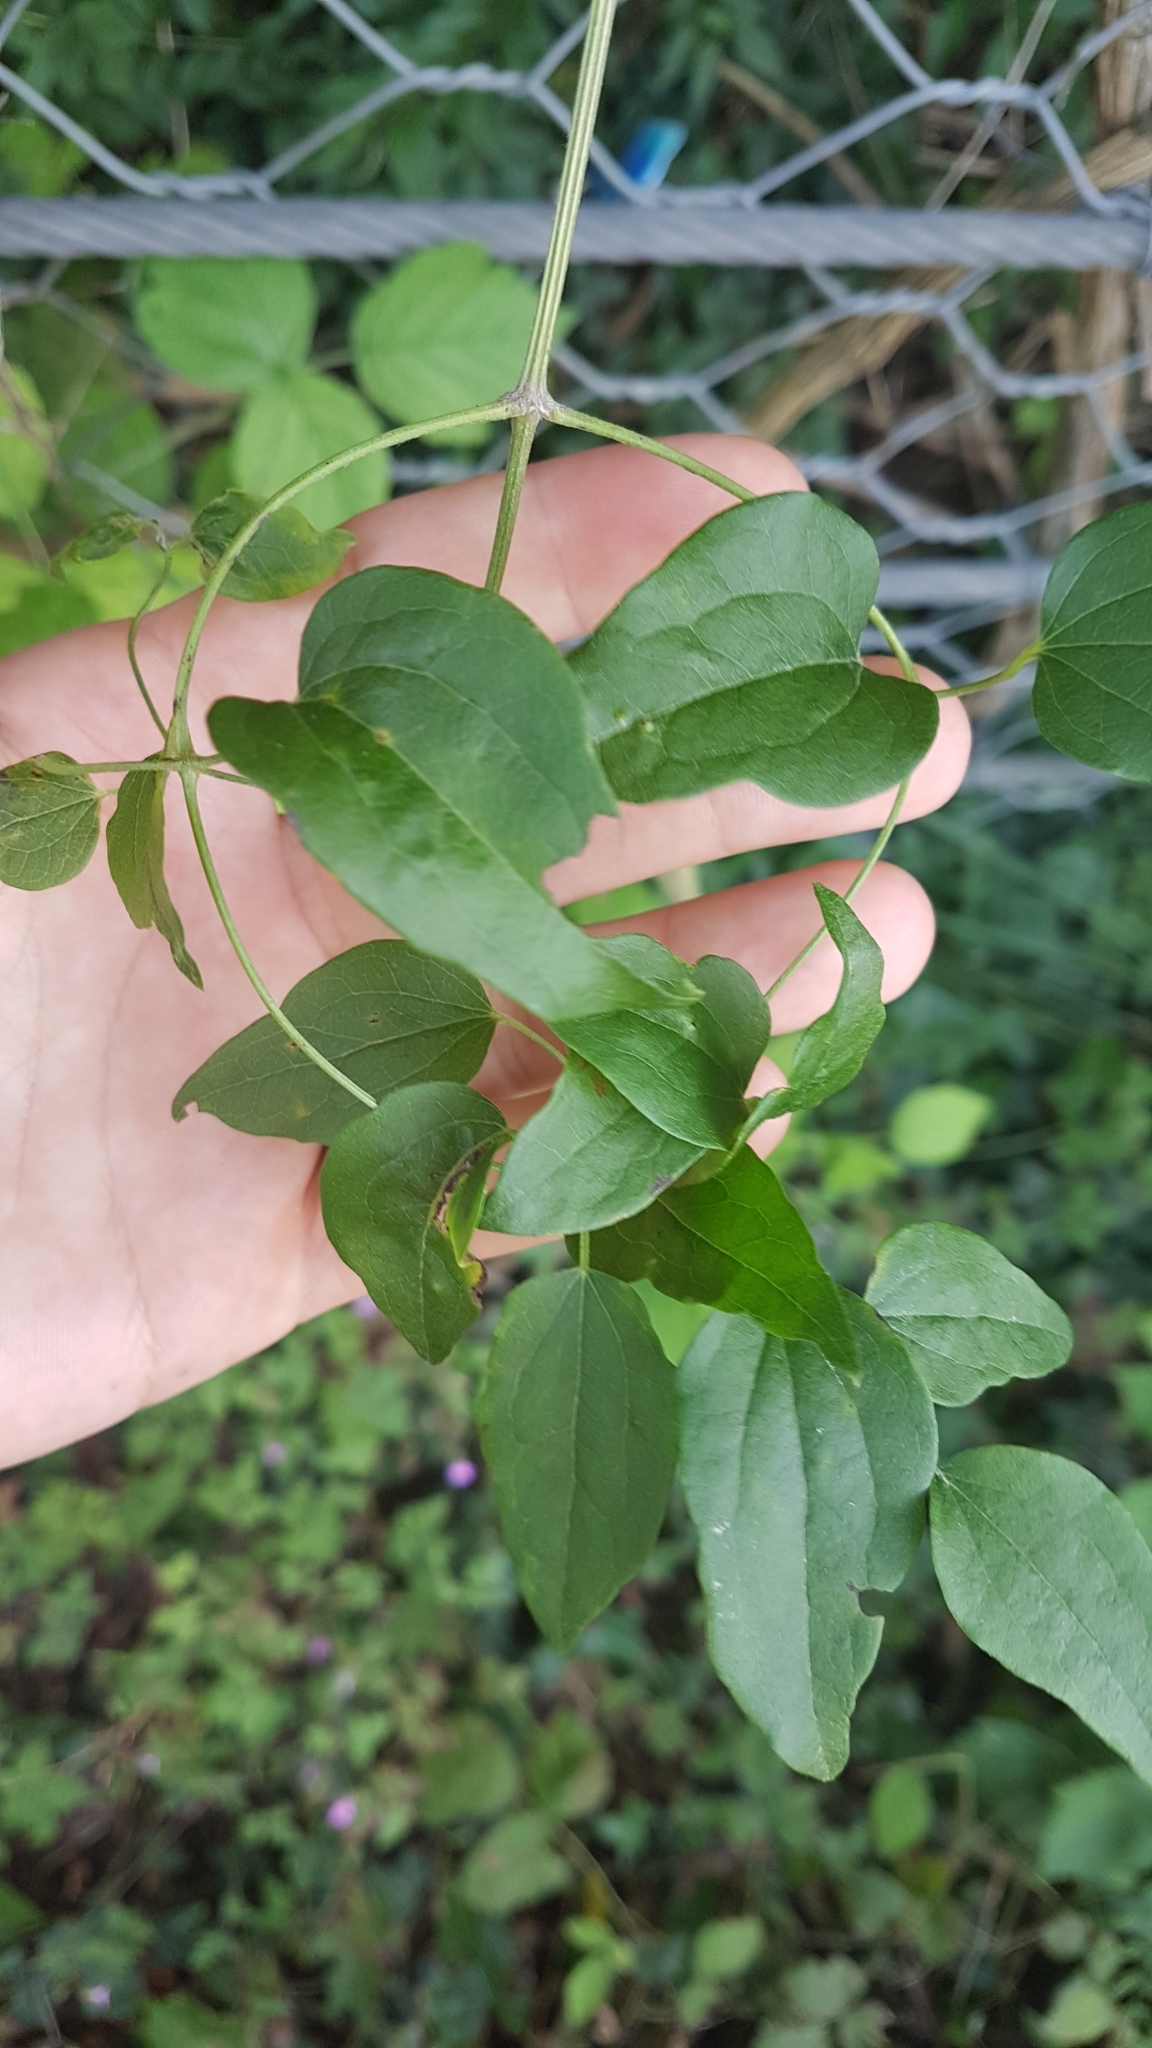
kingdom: Plantae
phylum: Tracheophyta
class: Magnoliopsida
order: Ranunculales
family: Ranunculaceae
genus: Clematis
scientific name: Clematis vitalba
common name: Evergreen clematis
